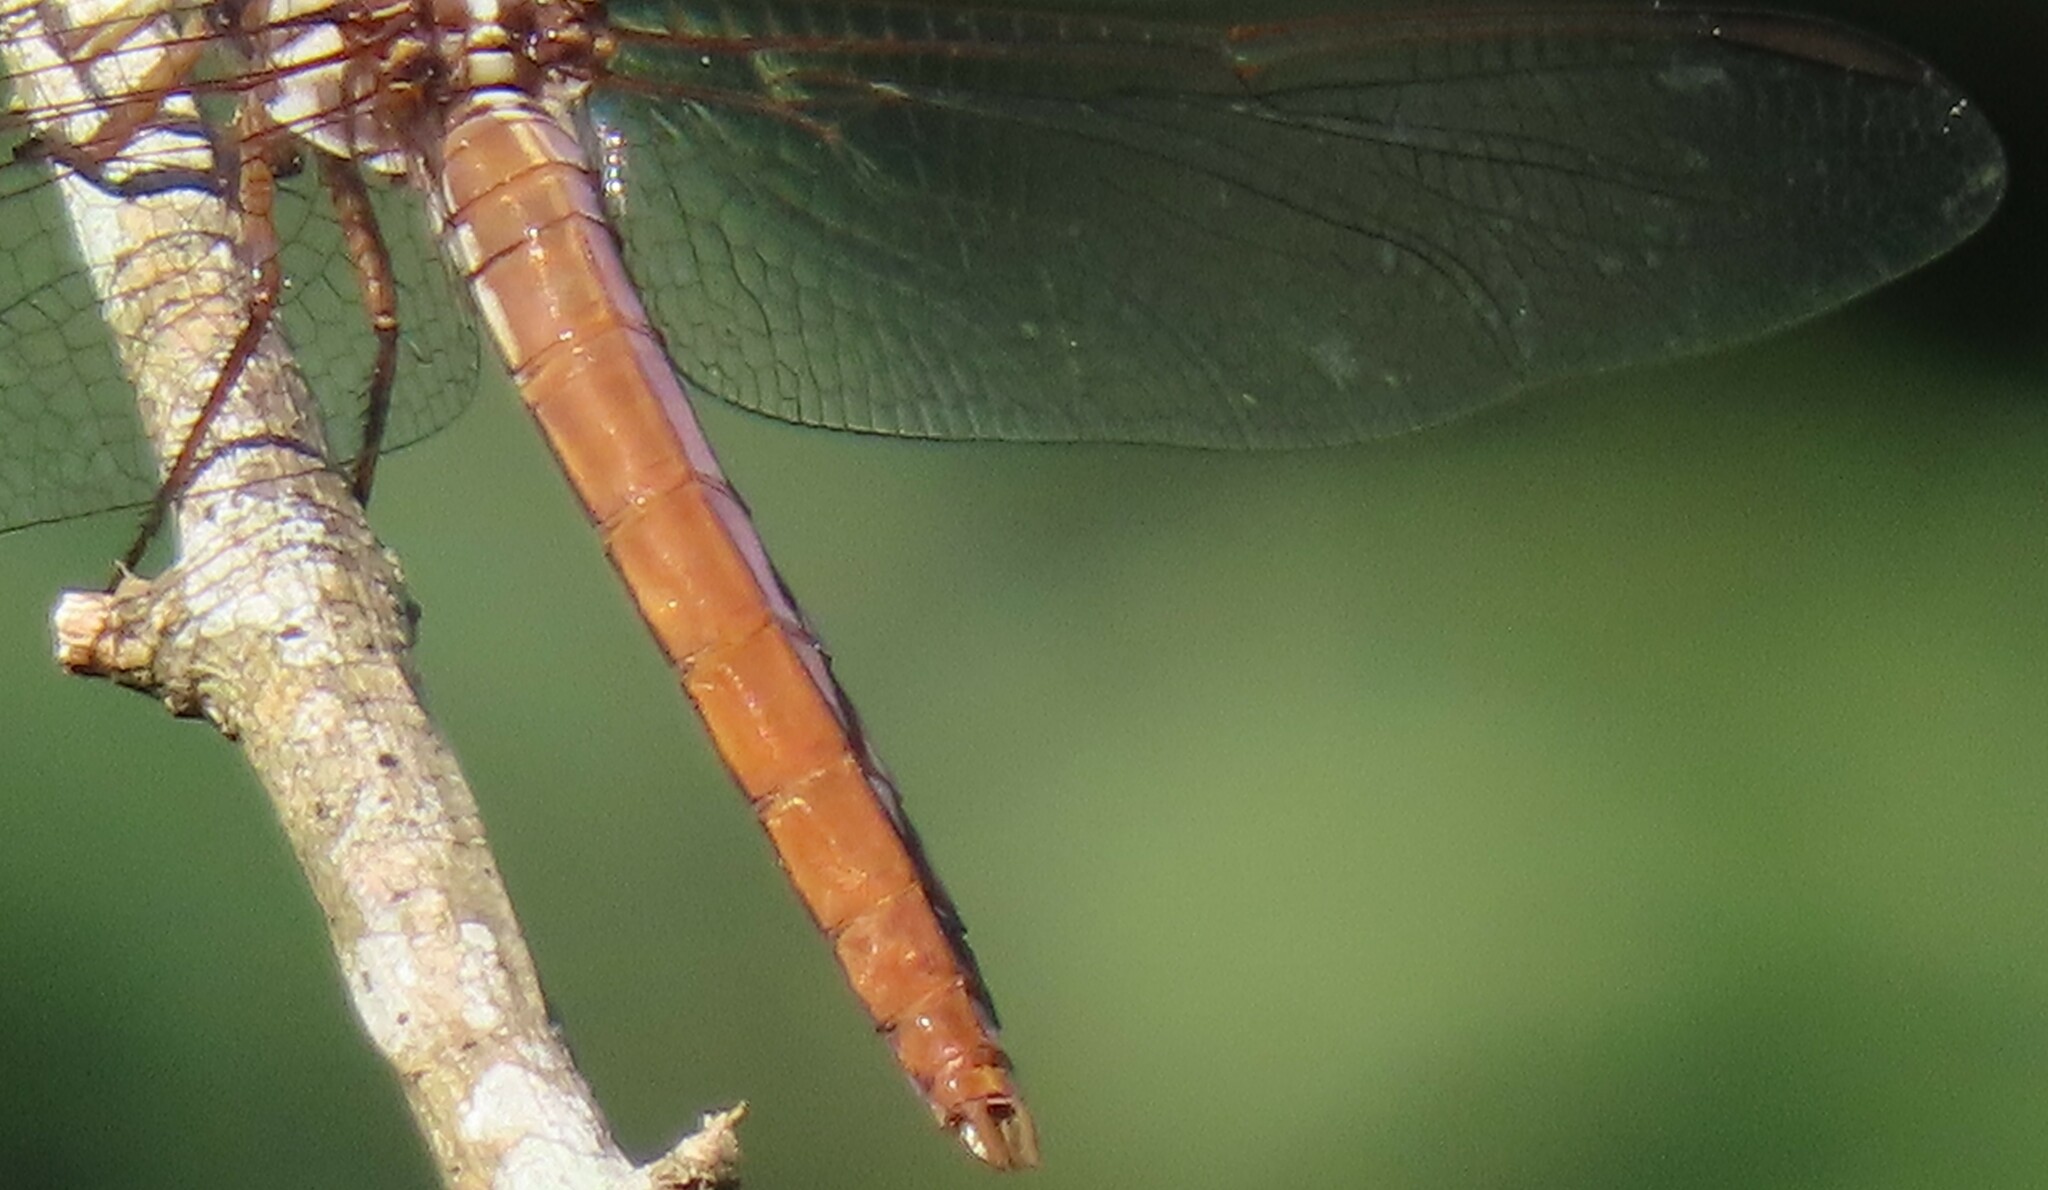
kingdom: Animalia
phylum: Arthropoda
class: Insecta
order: Odonata
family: Libellulidae
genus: Orthemis
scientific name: Orthemis ferruginea
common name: Roseate skimmer
